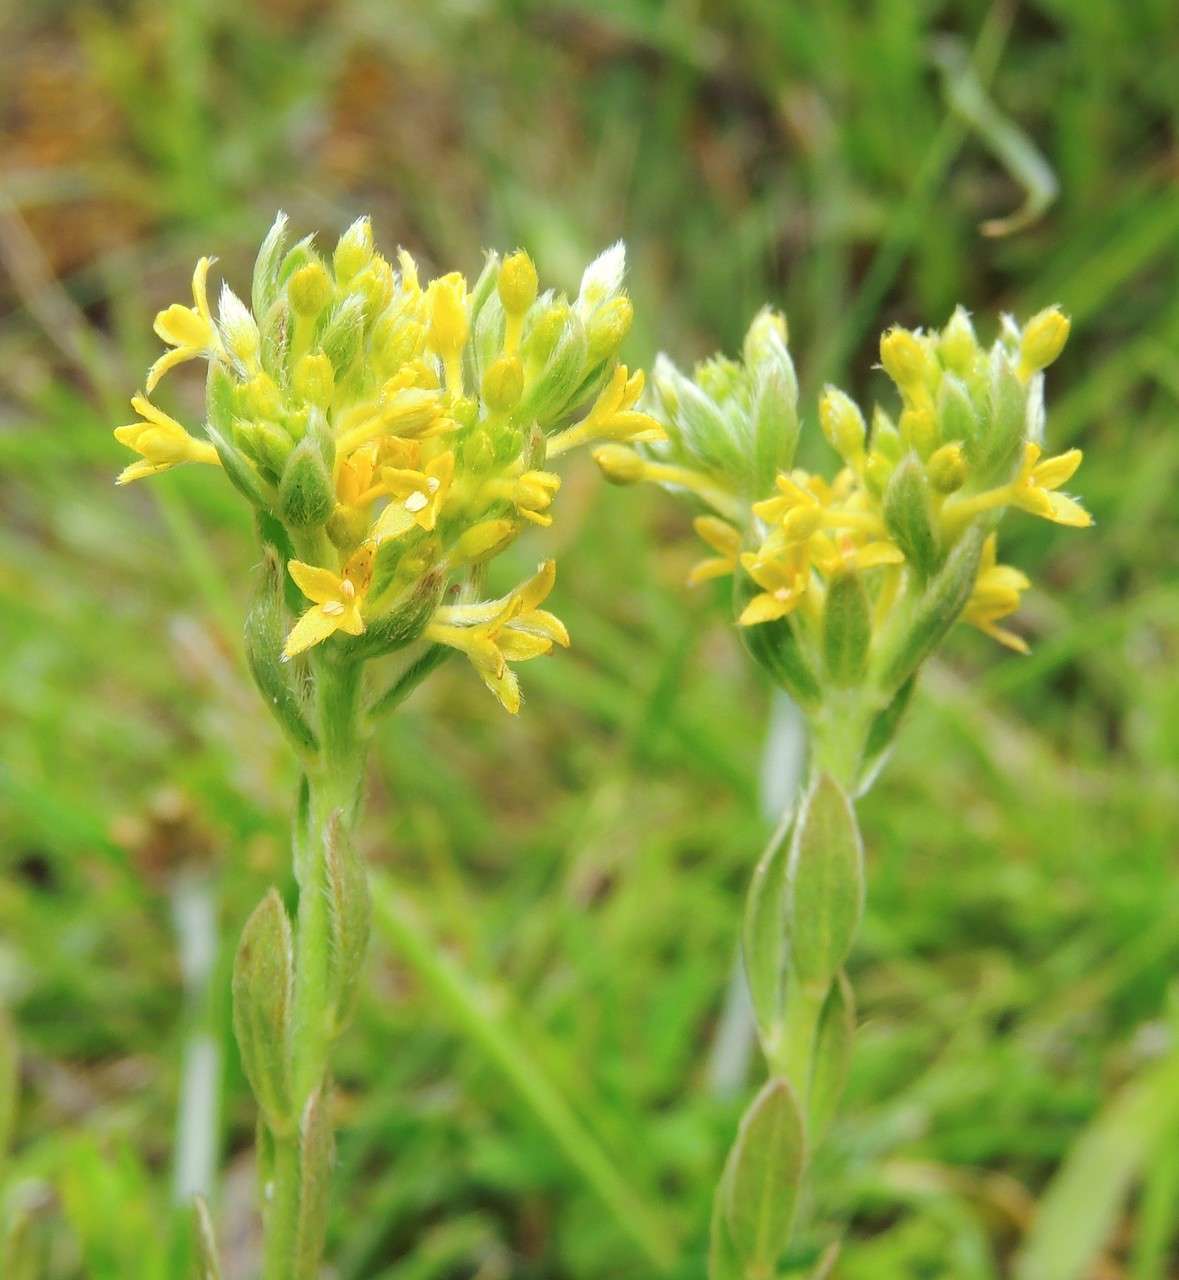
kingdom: Plantae
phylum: Tracheophyta
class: Magnoliopsida
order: Malvales
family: Thymelaeaceae
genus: Pimelea
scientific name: Pimelea curviflora
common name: Curved riceflower
